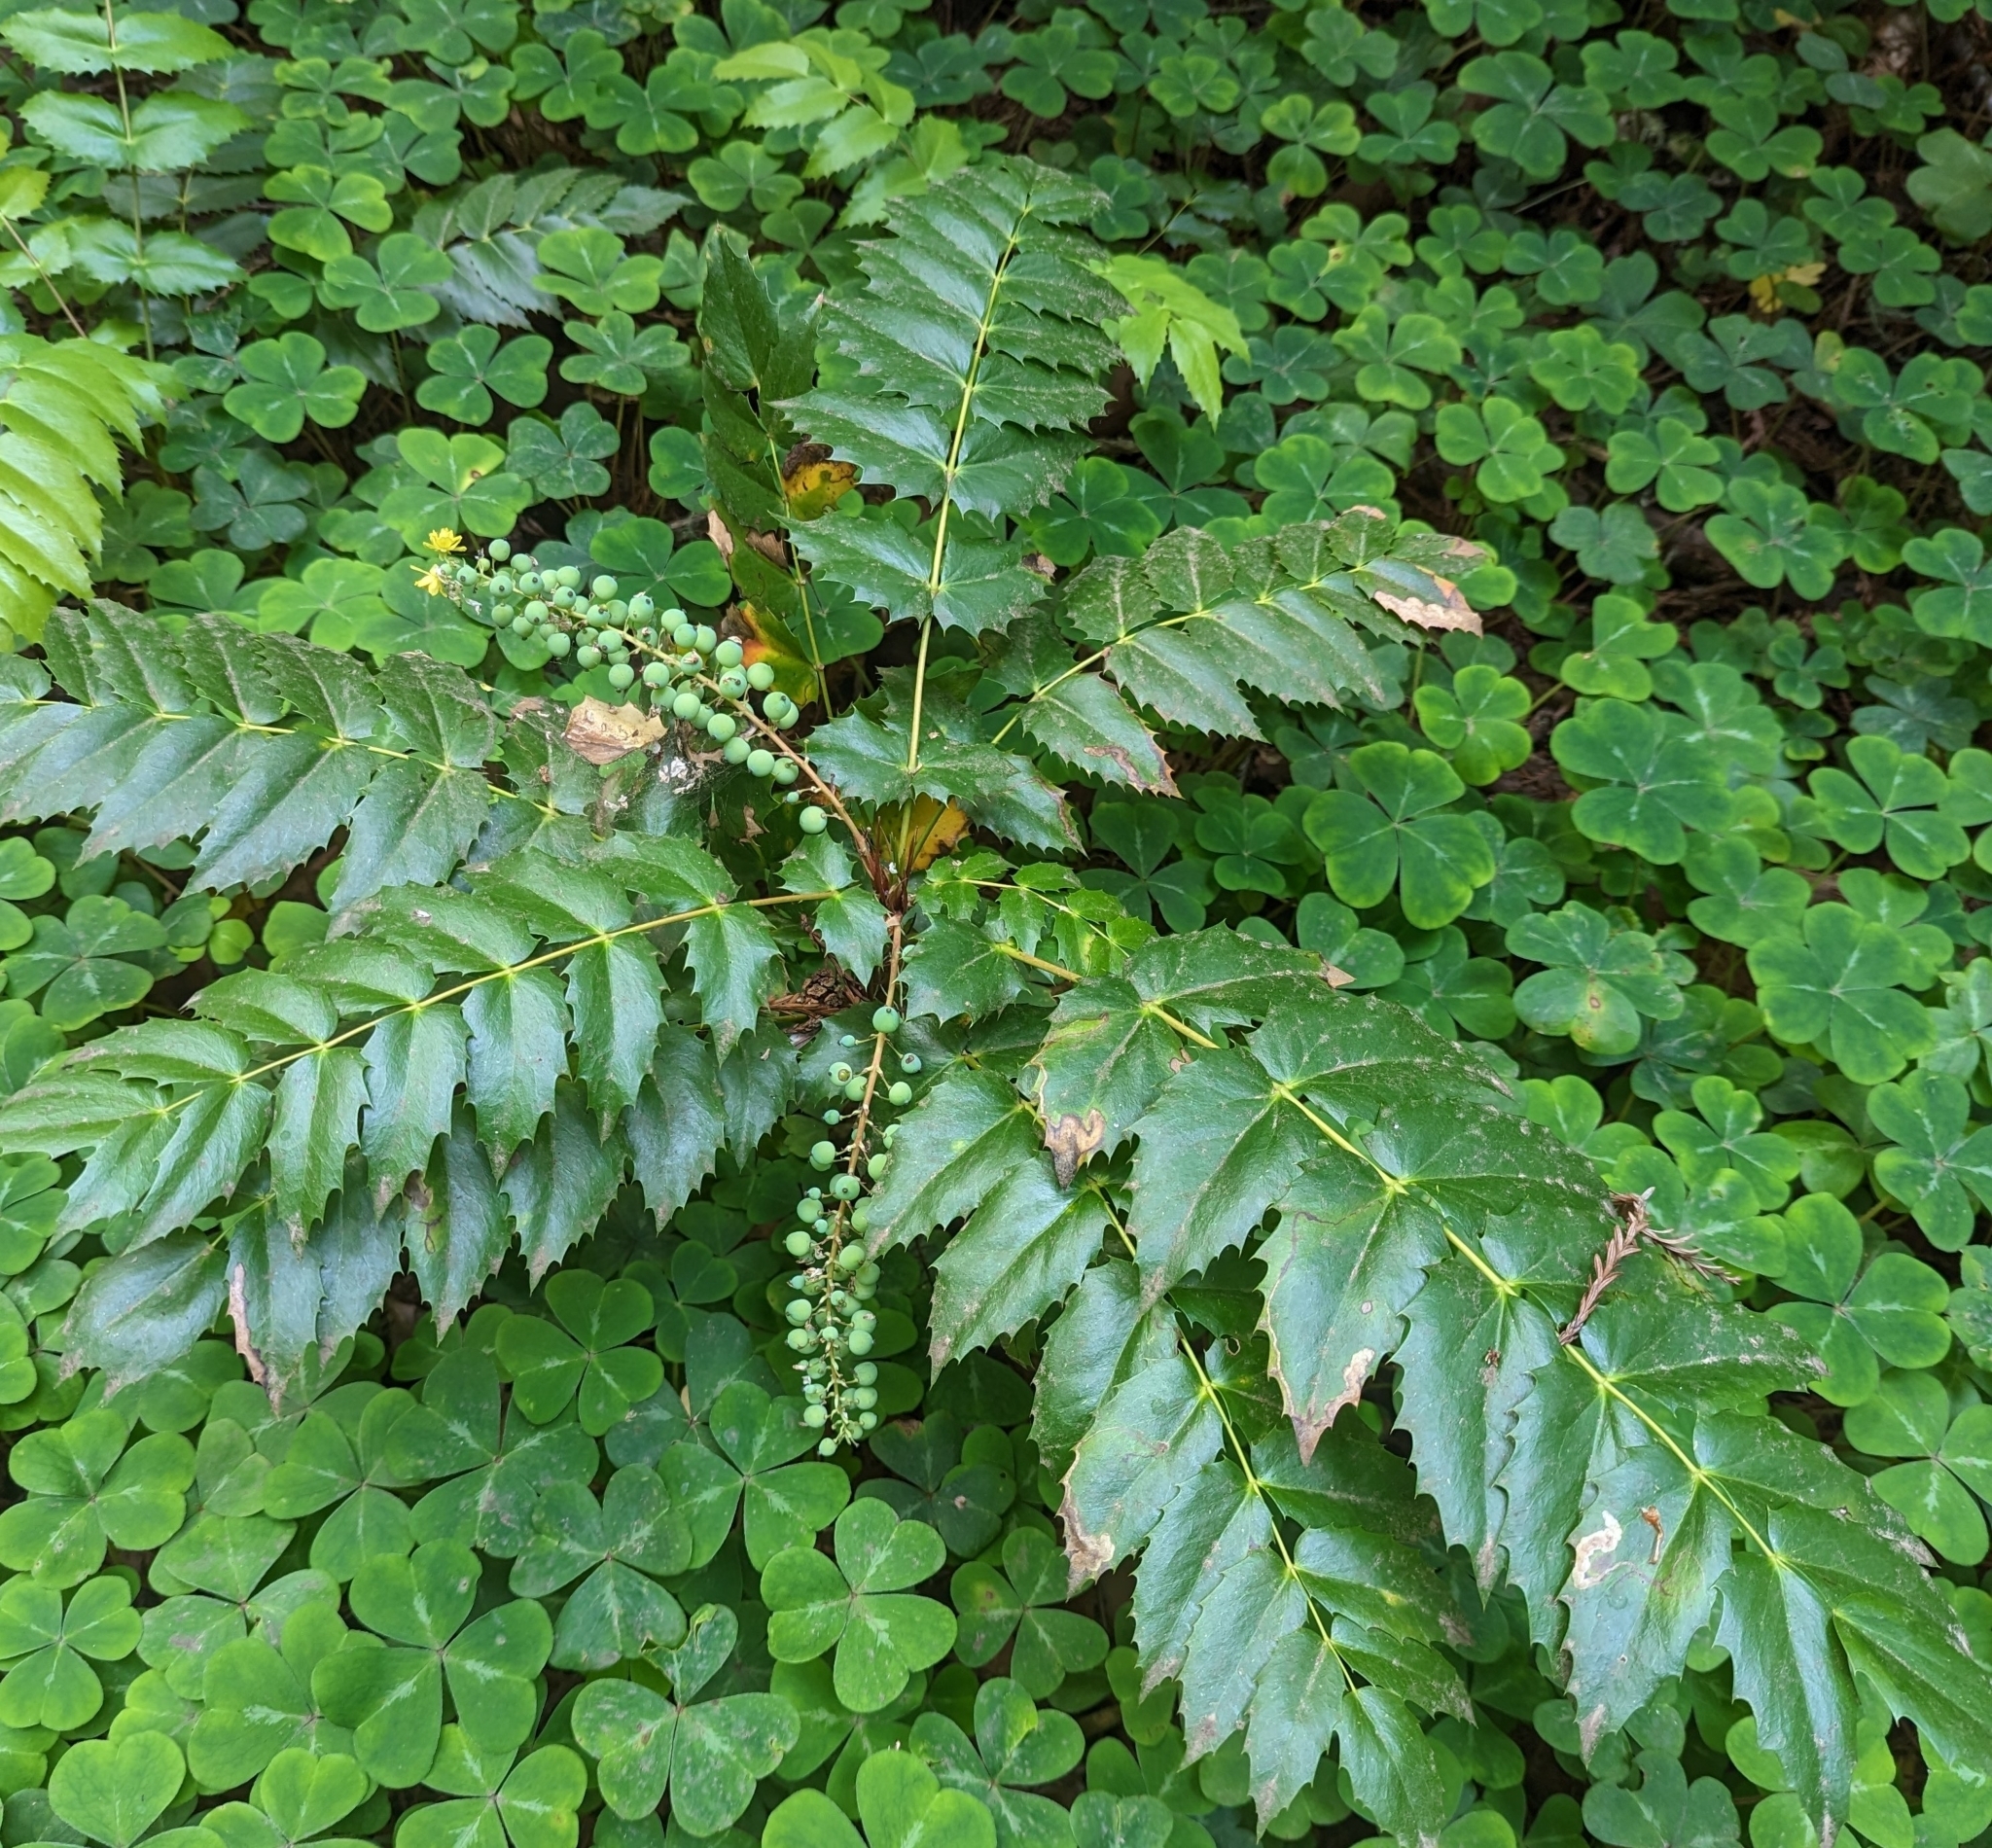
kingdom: Plantae
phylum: Tracheophyta
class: Magnoliopsida
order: Ranunculales
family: Berberidaceae
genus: Mahonia
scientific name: Mahonia nervosa
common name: Cascade oregon-grape
